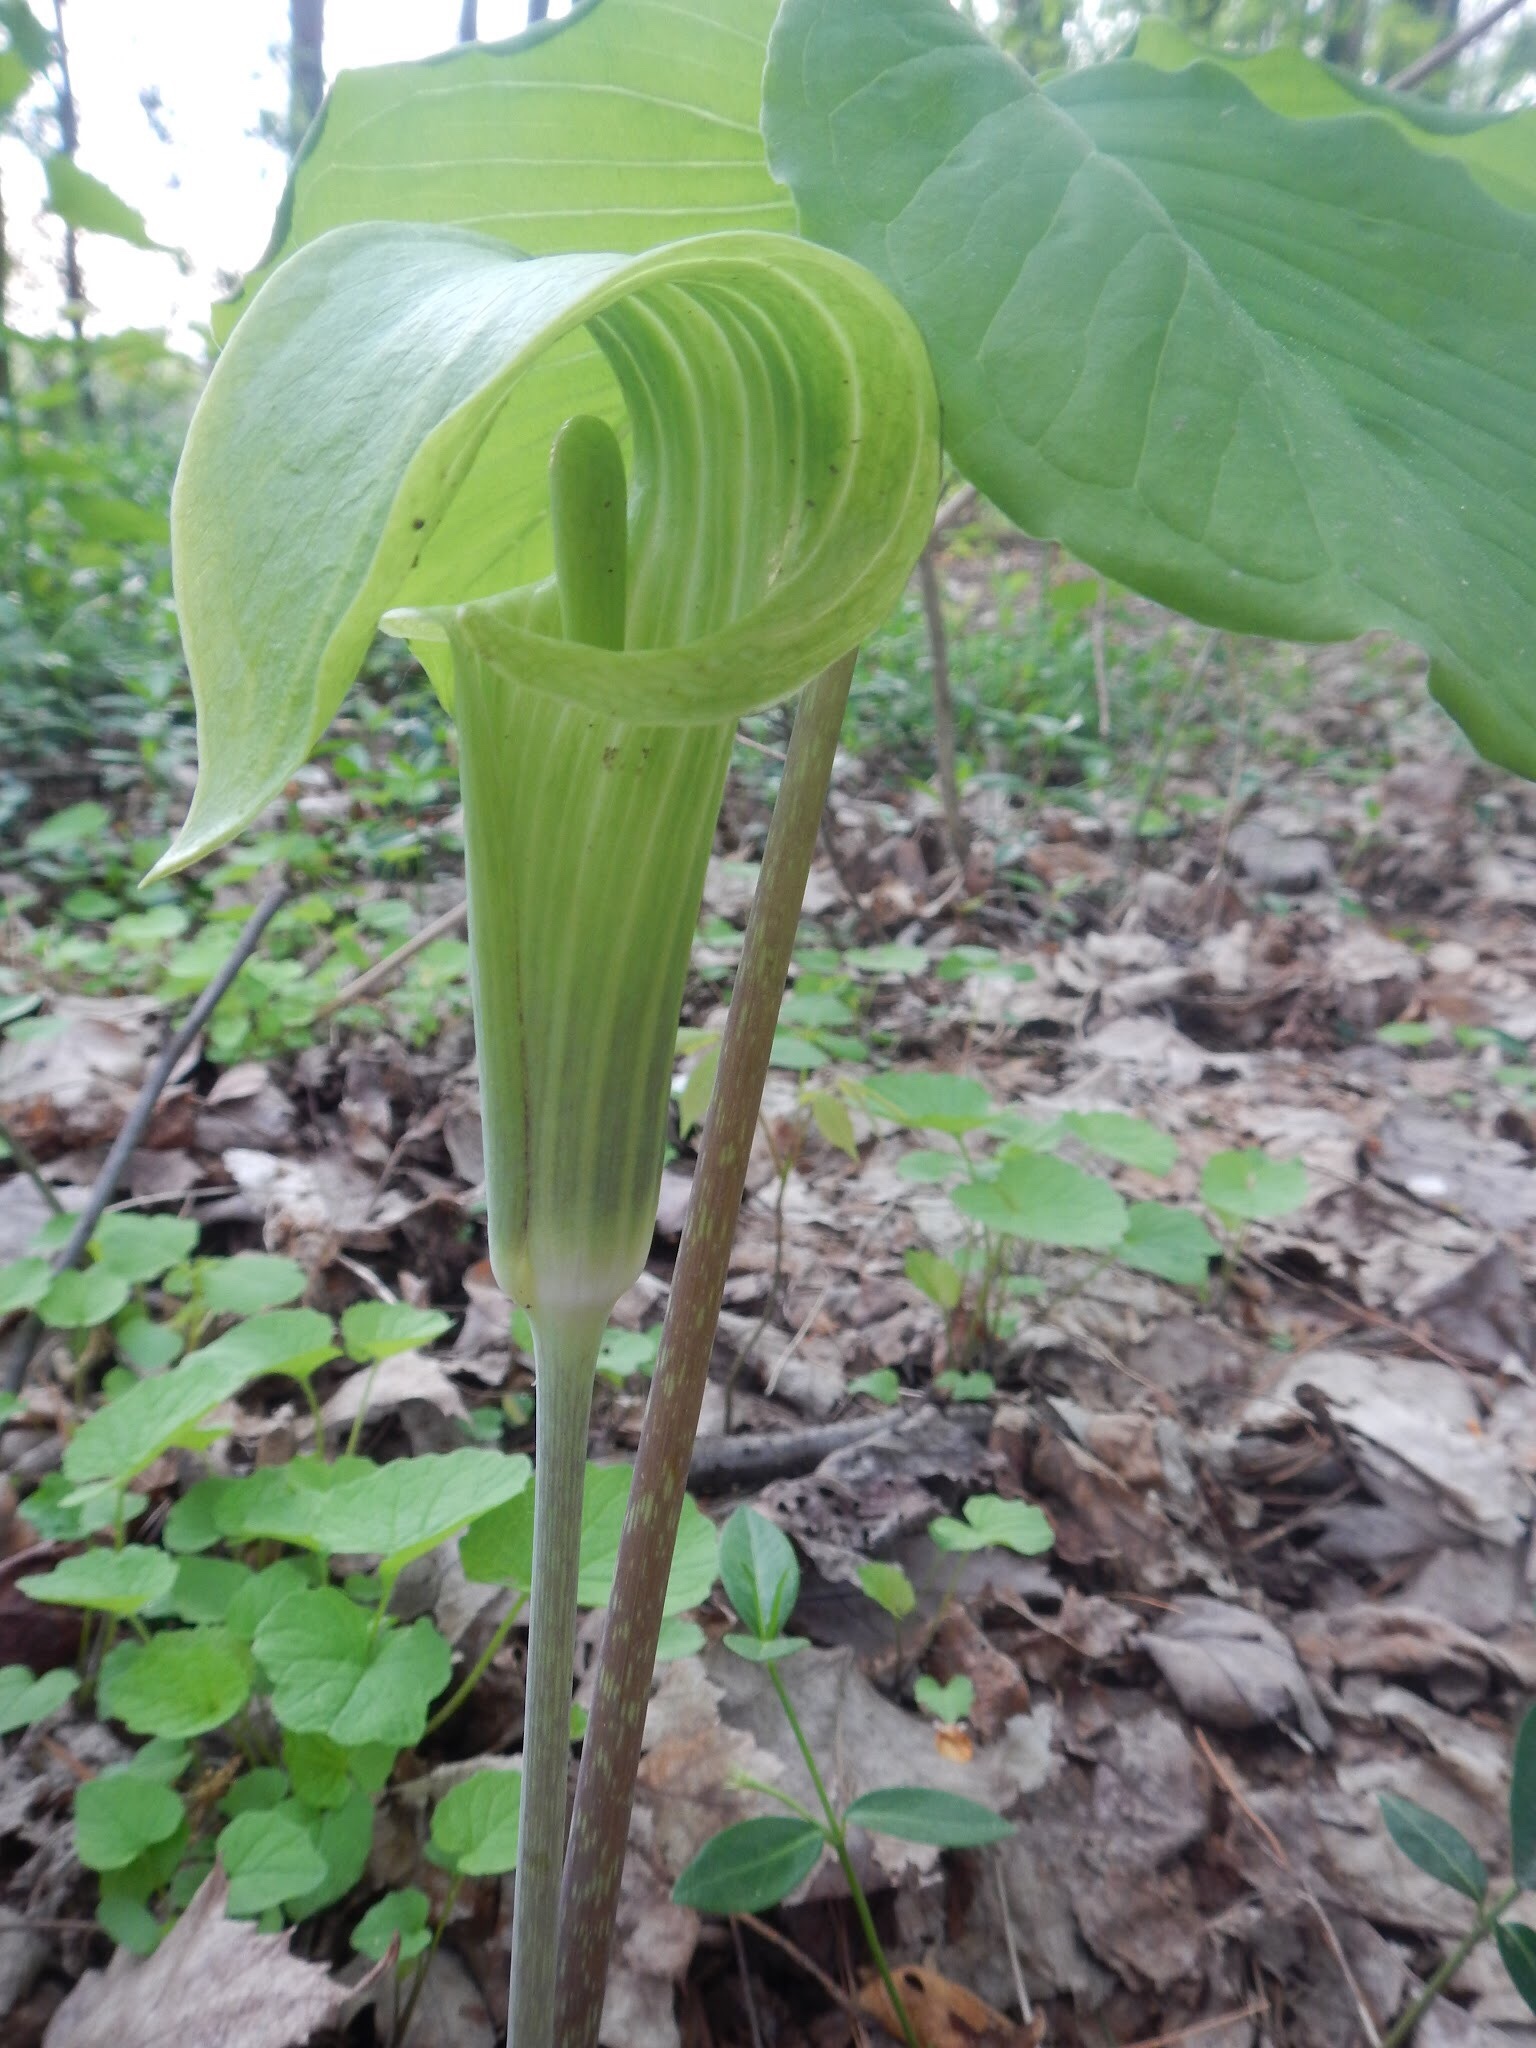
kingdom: Plantae
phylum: Tracheophyta
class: Liliopsida
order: Alismatales
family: Araceae
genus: Arisaema
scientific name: Arisaema triphyllum
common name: Jack-in-the-pulpit
